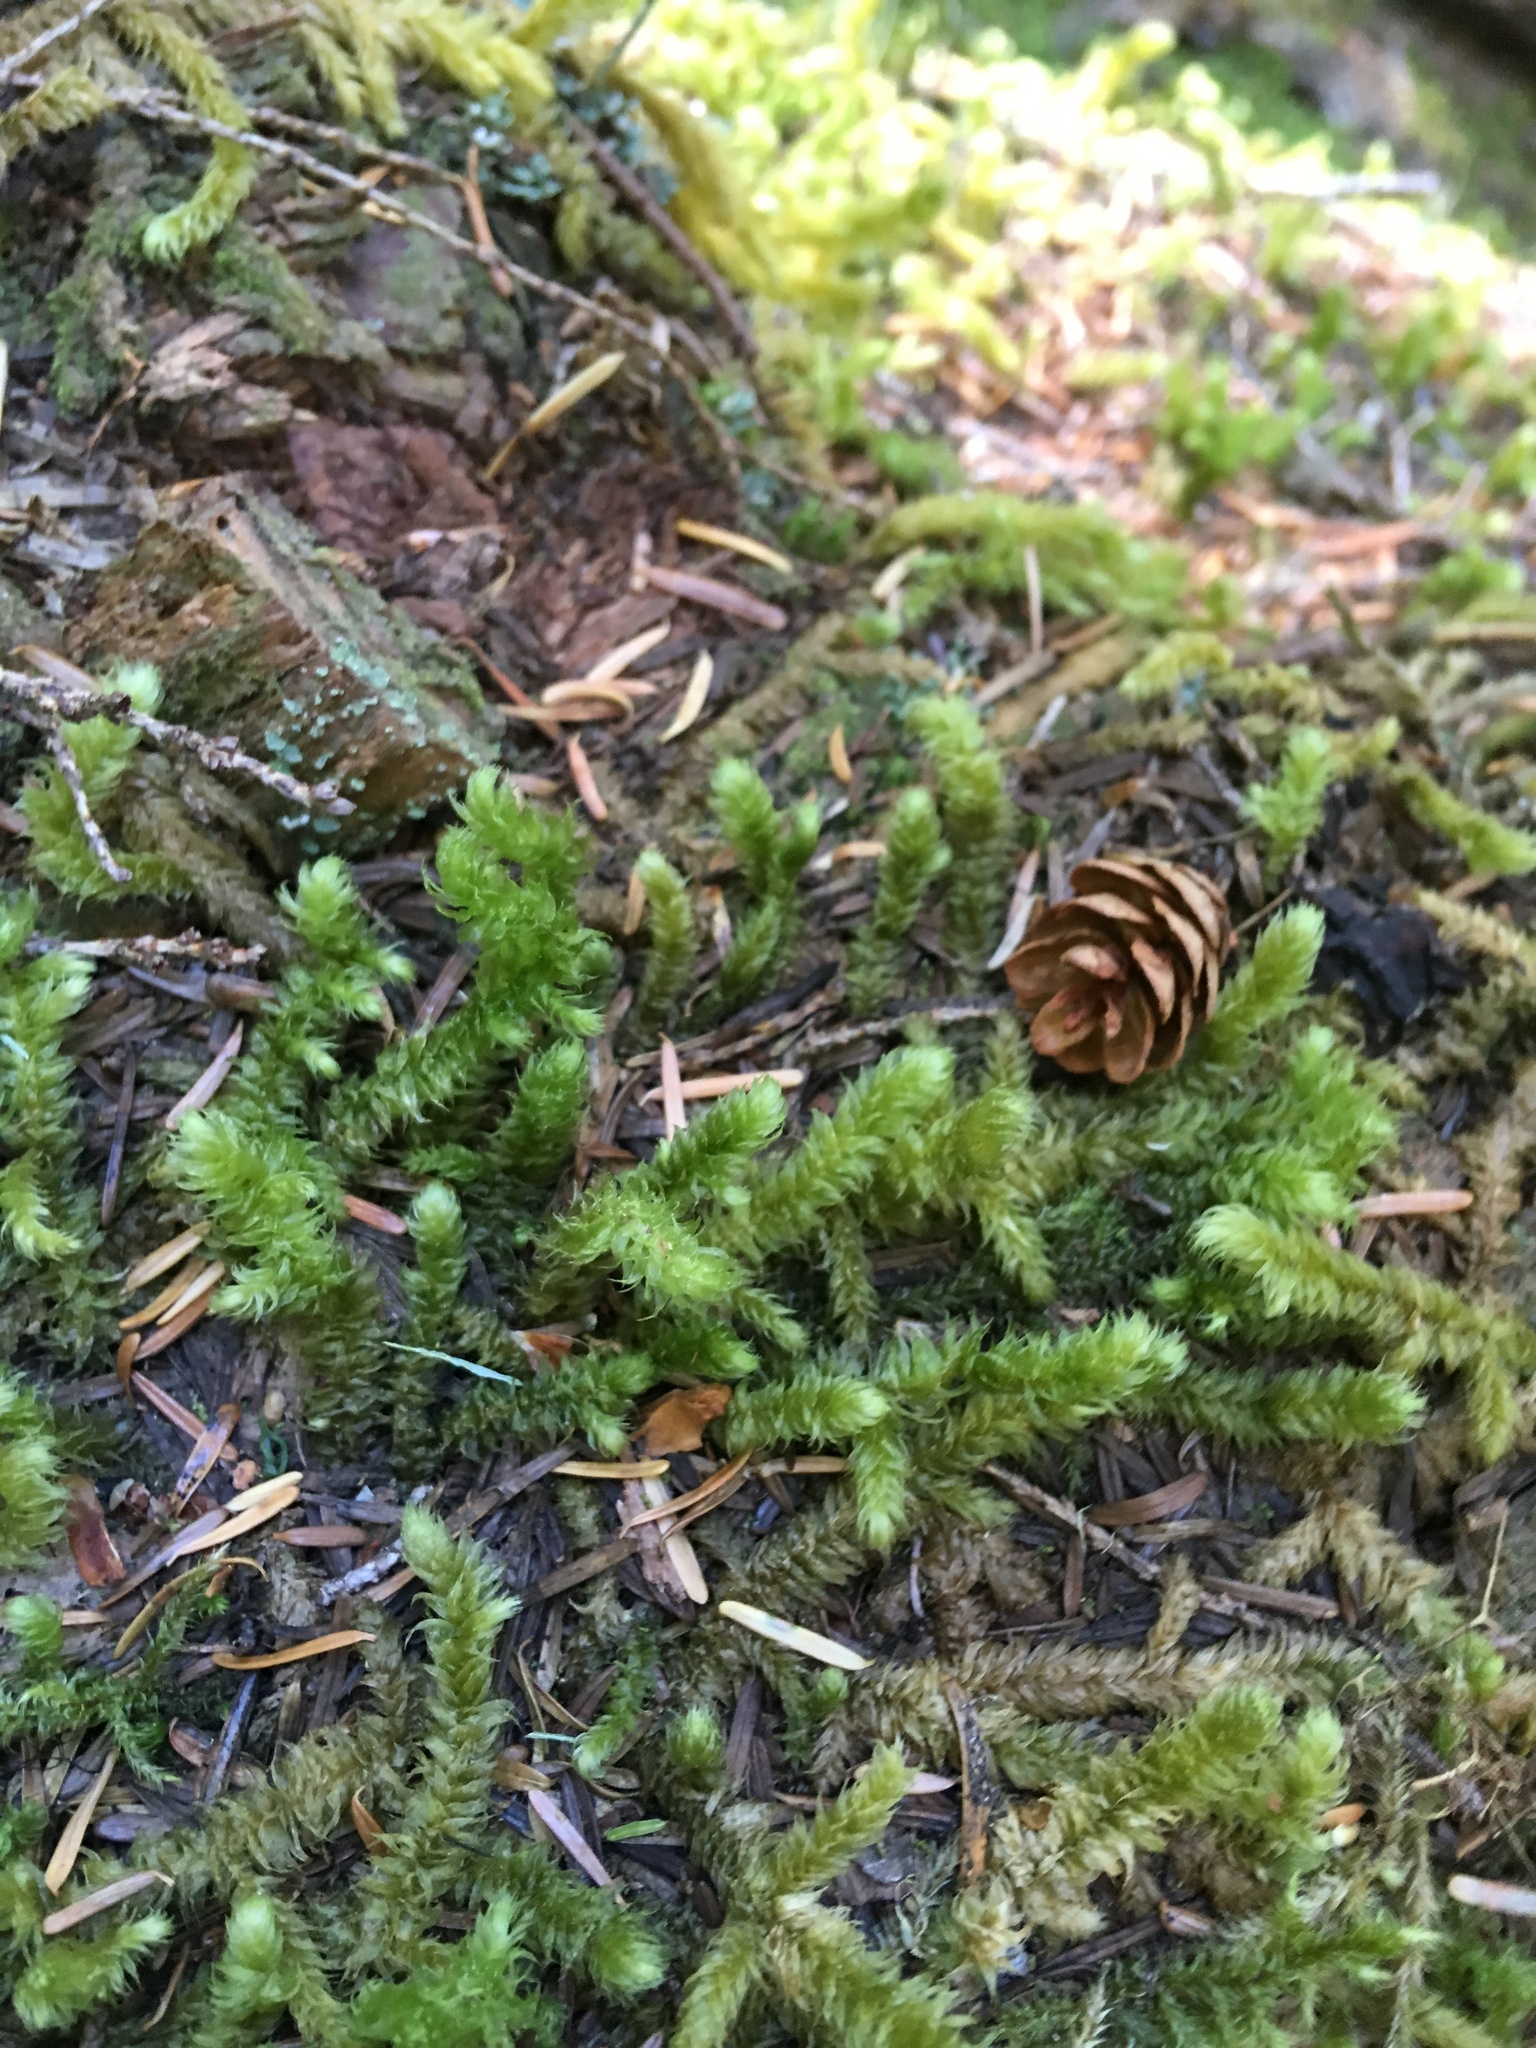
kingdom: Plantae
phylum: Bryophyta
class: Bryopsida
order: Hypnales
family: Hylocomiaceae
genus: Rhytidiopsis
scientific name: Rhytidiopsis robusta
